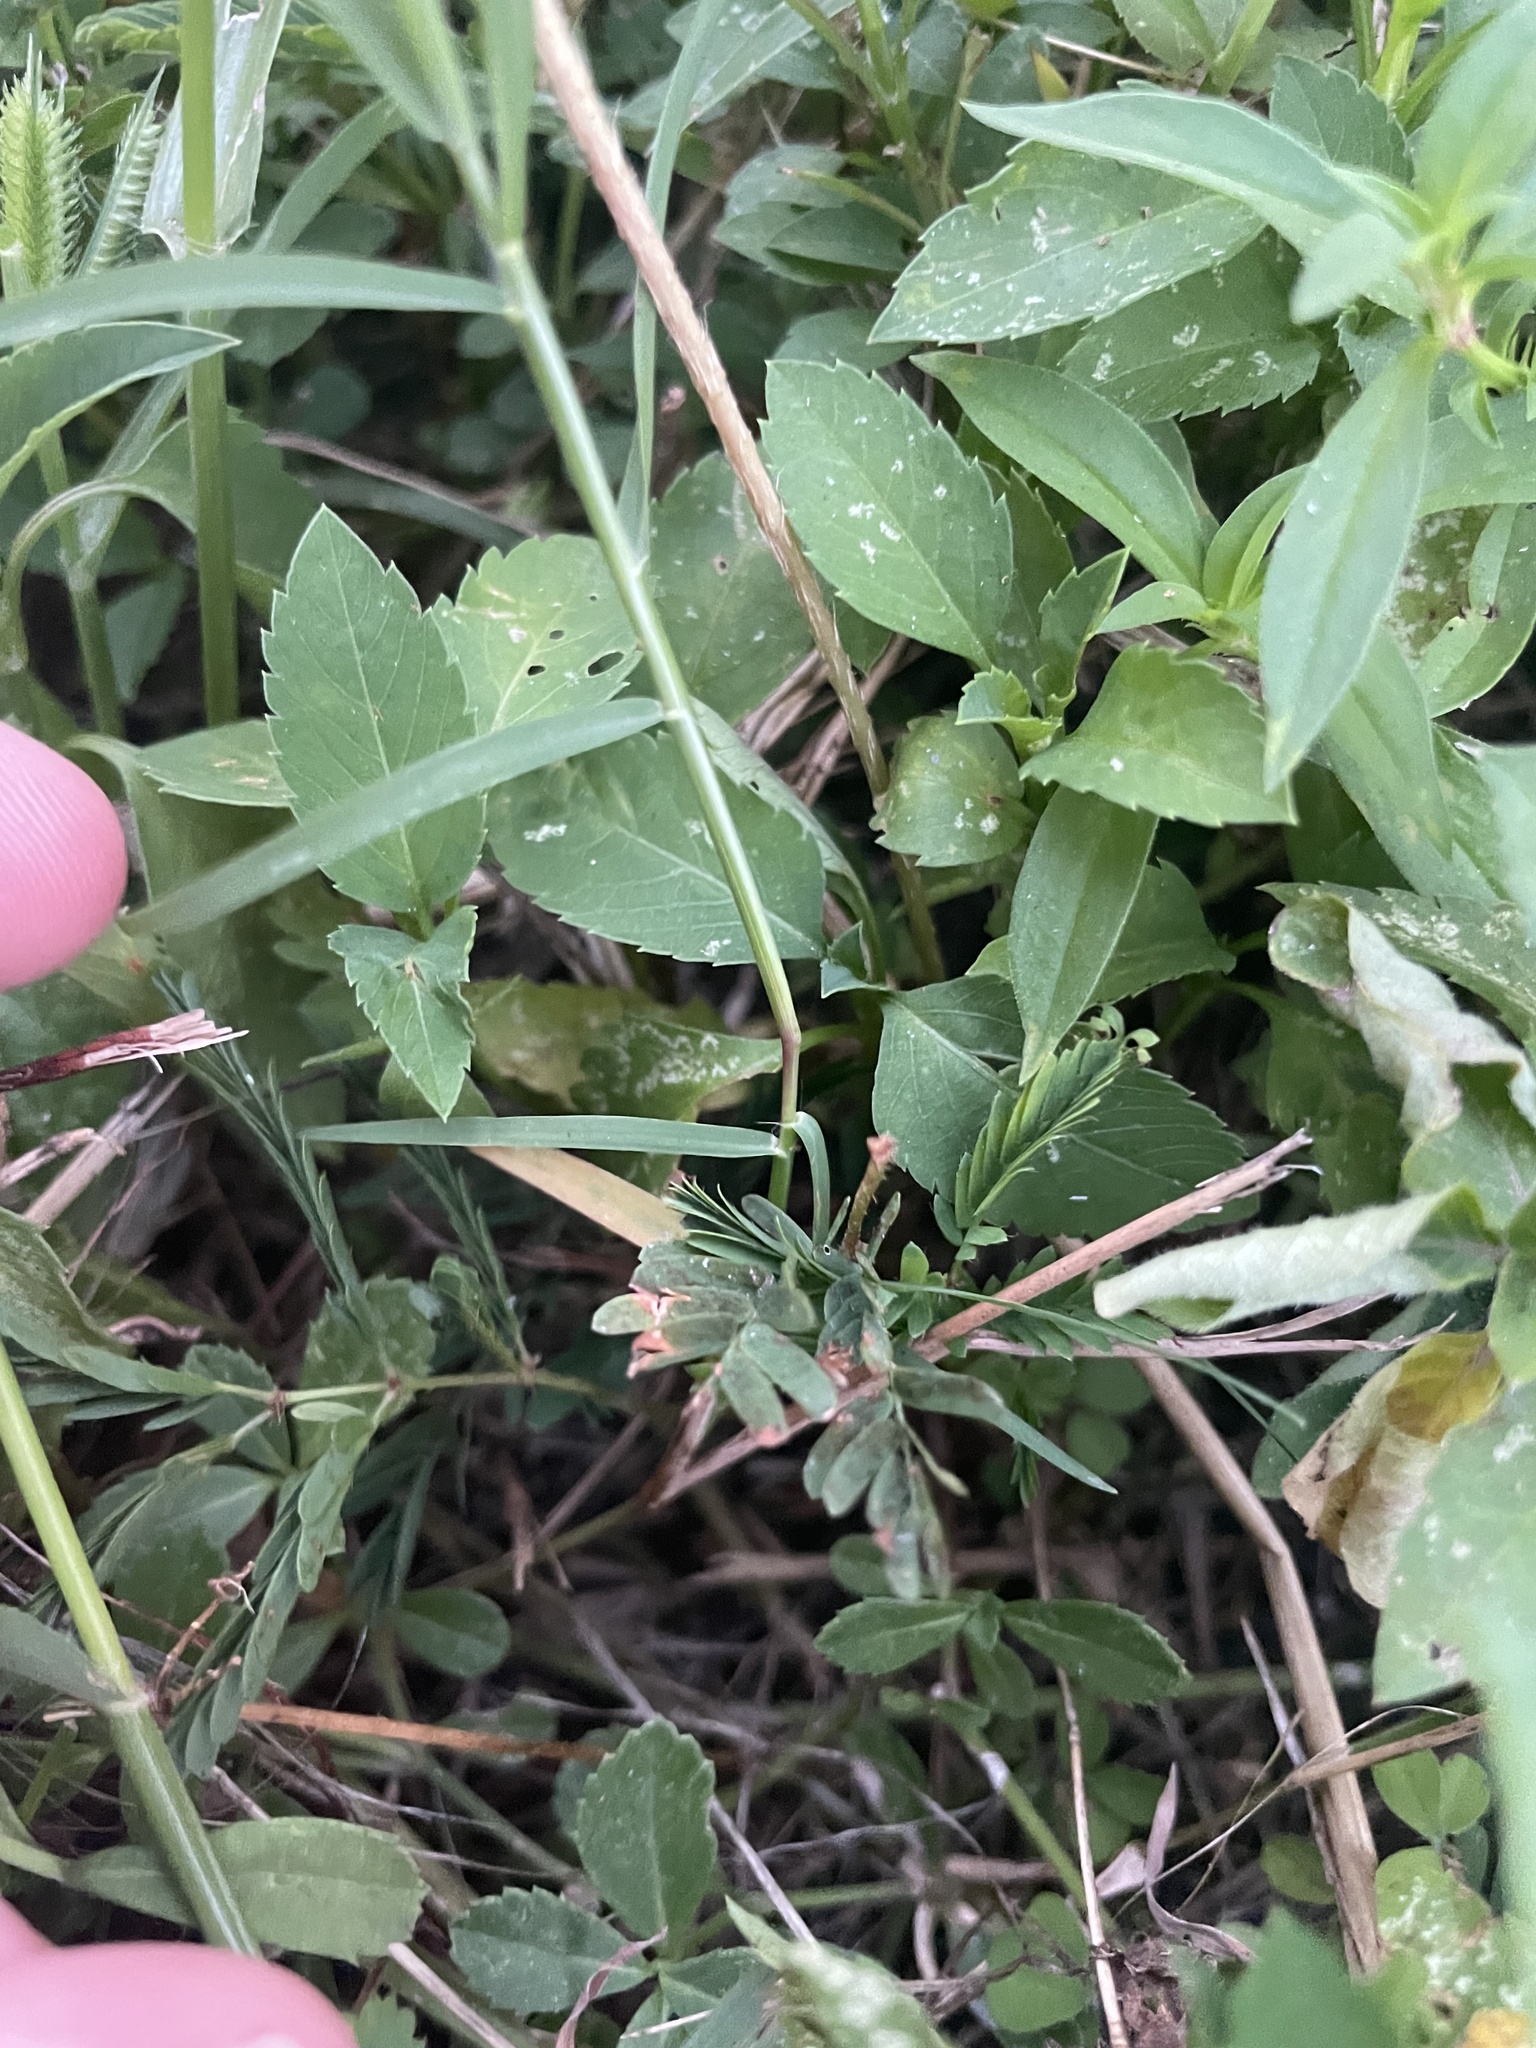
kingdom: Plantae
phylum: Tracheophyta
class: Magnoliopsida
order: Fabales
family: Fabaceae
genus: Mimosa
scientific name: Mimosa strigillosa
